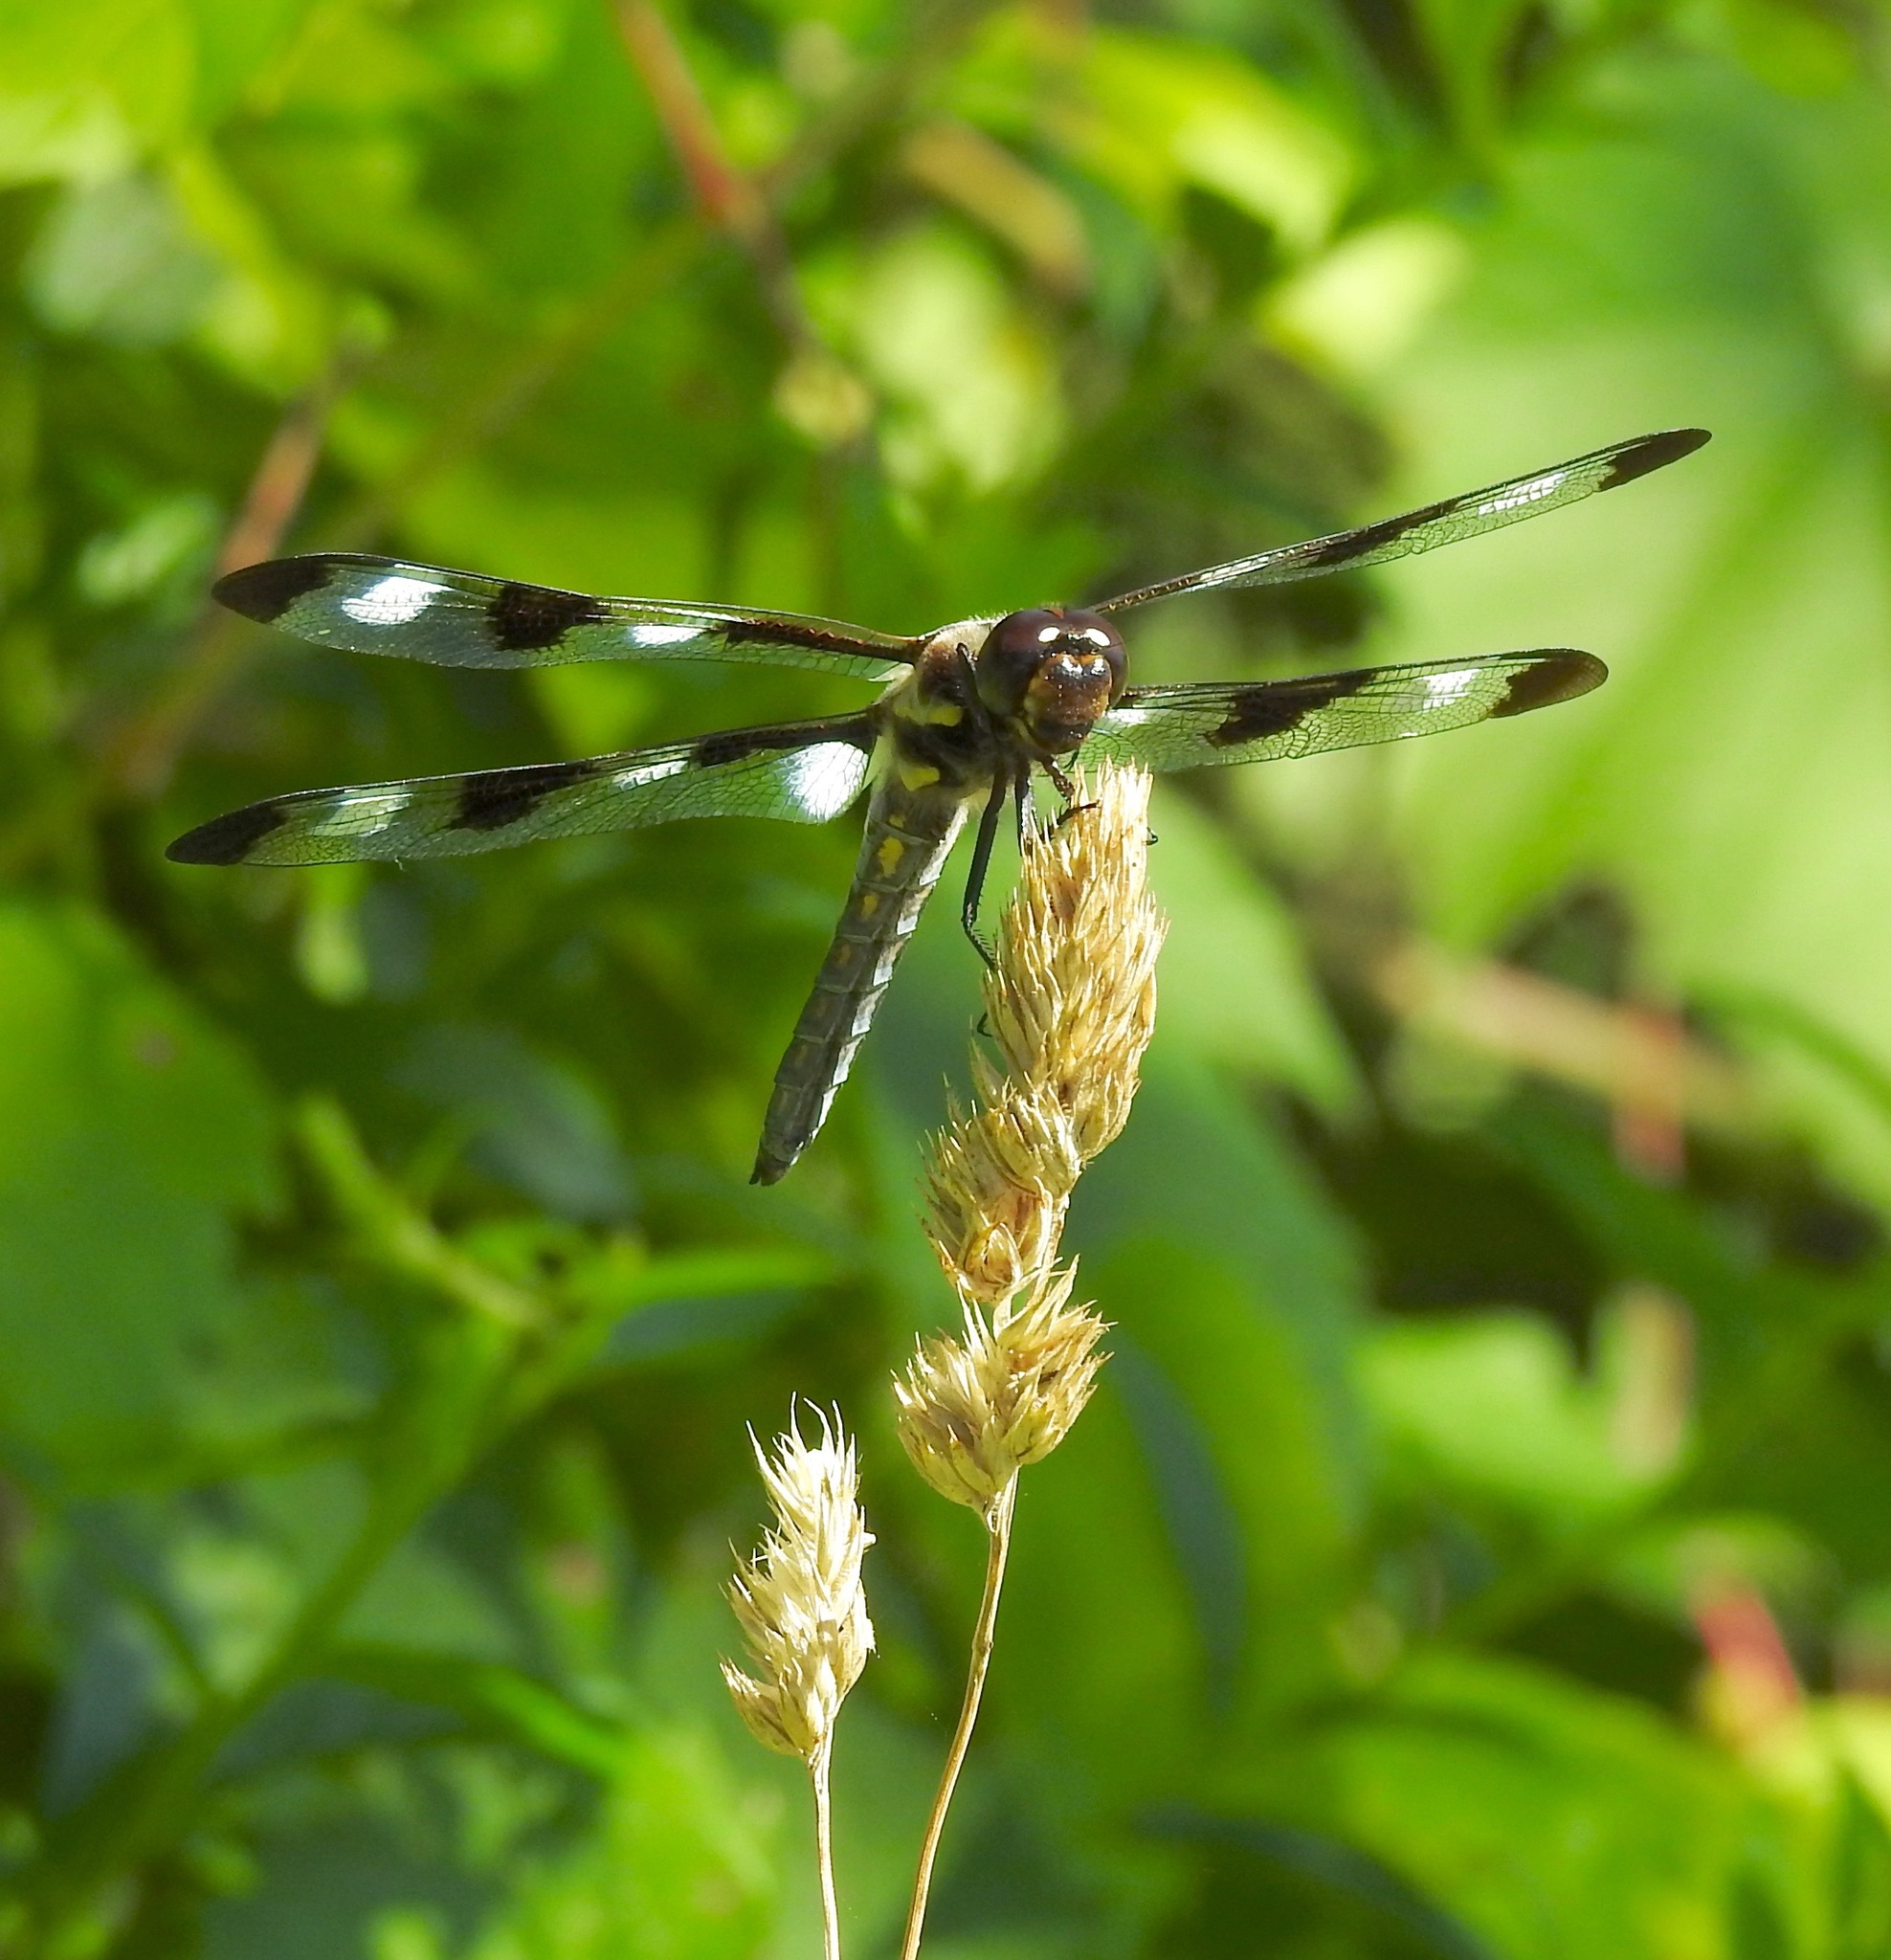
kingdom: Animalia
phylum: Arthropoda
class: Insecta
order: Odonata
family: Libellulidae
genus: Libellula
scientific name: Libellula pulchella
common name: Twelve-spotted skimmer
